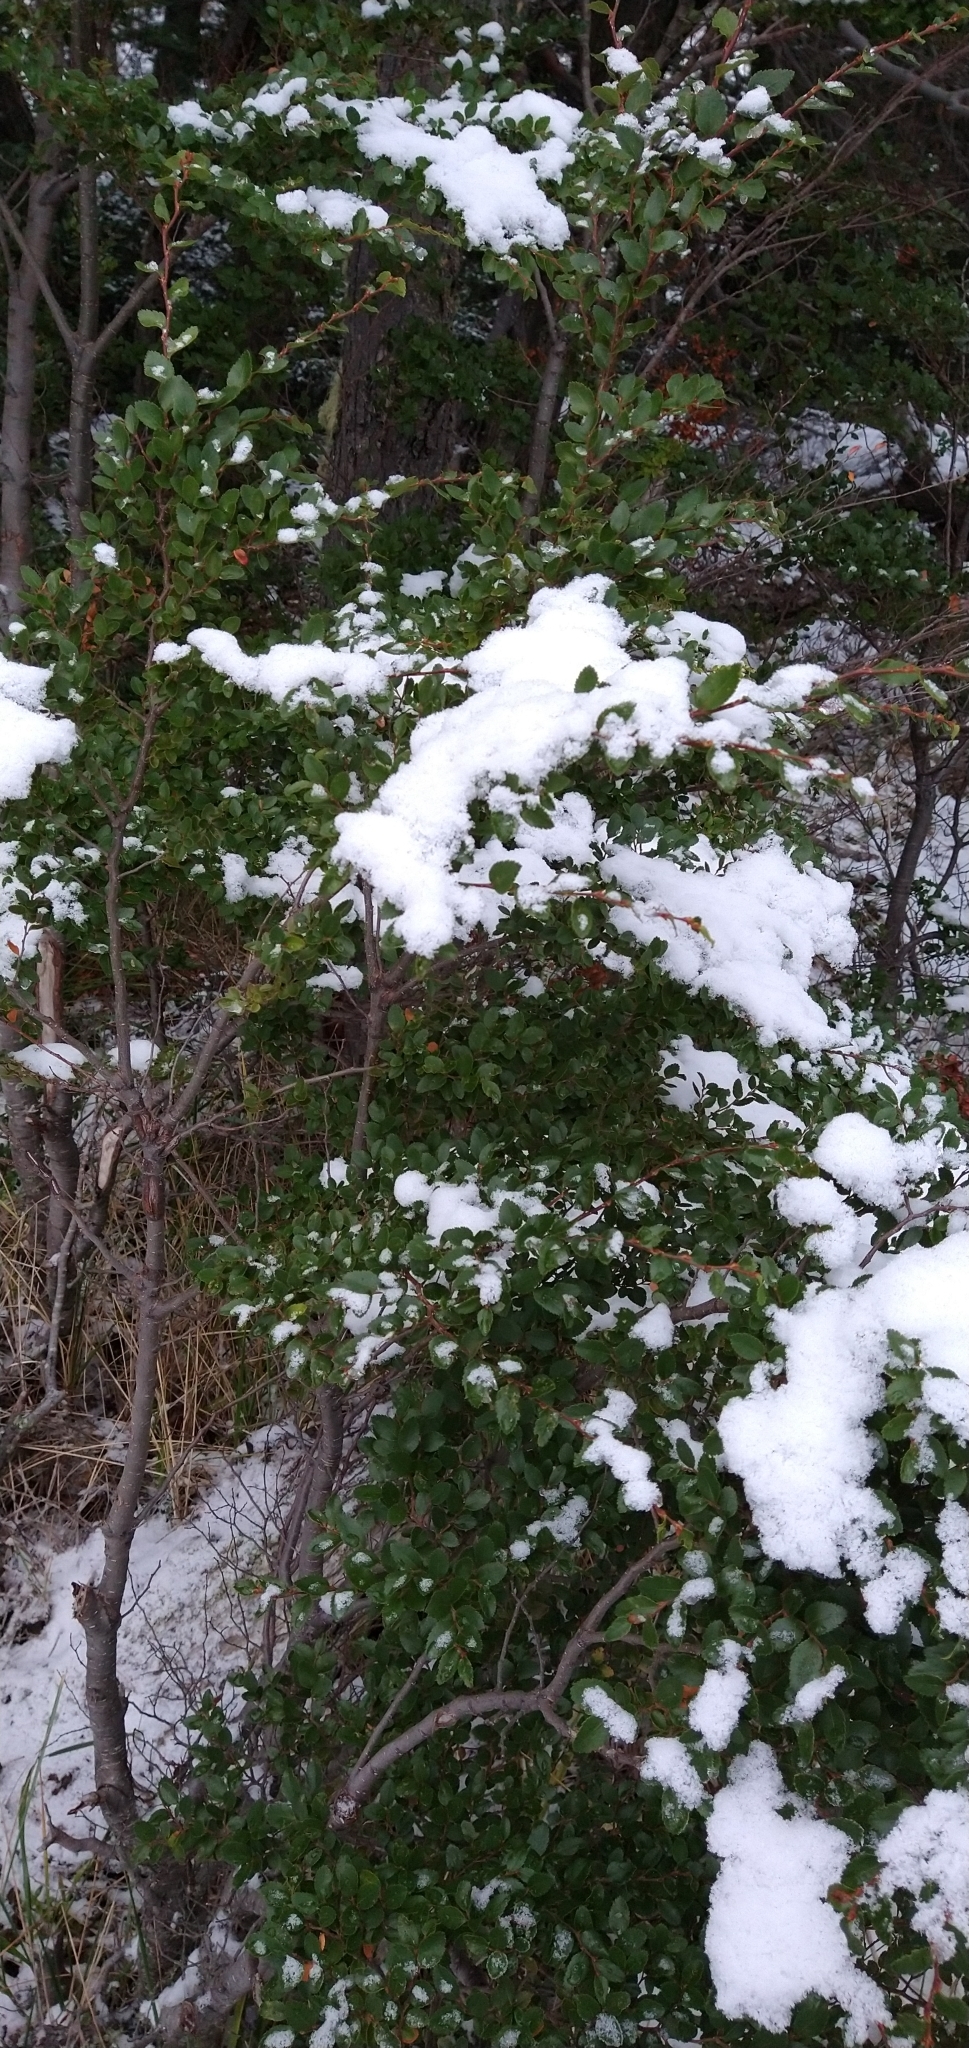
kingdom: Plantae
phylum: Tracheophyta
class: Magnoliopsida
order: Fagales
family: Nothofagaceae
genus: Nothofagus
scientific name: Nothofagus betuloides
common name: Magellan's beech
